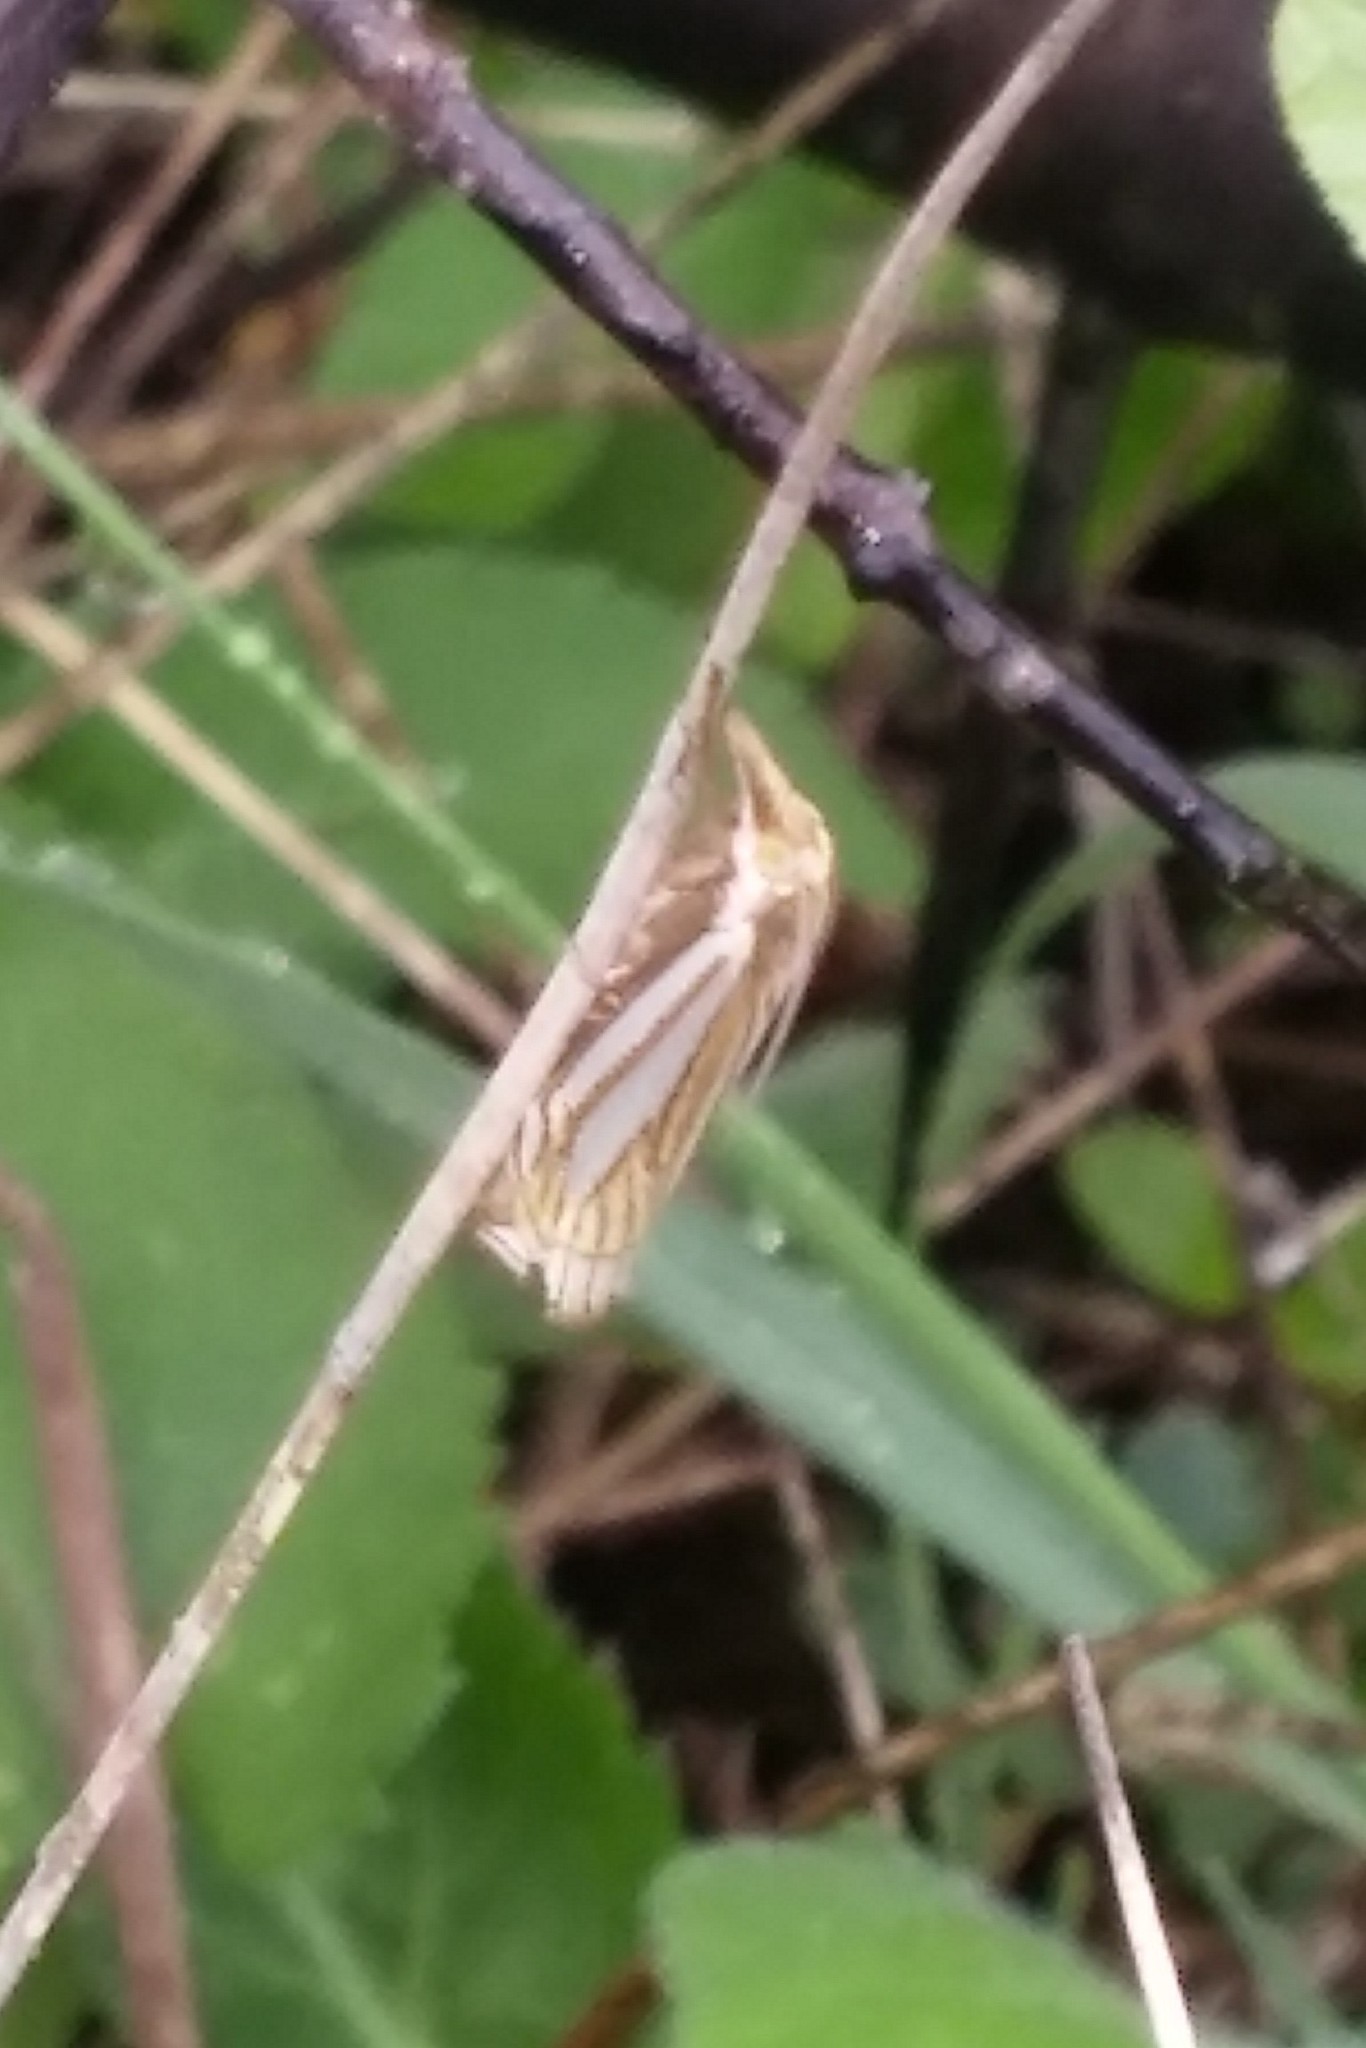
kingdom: Animalia
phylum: Arthropoda
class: Insecta
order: Lepidoptera
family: Crambidae
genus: Crambus
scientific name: Crambus laqueatellus
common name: Eastern grass-veneer
